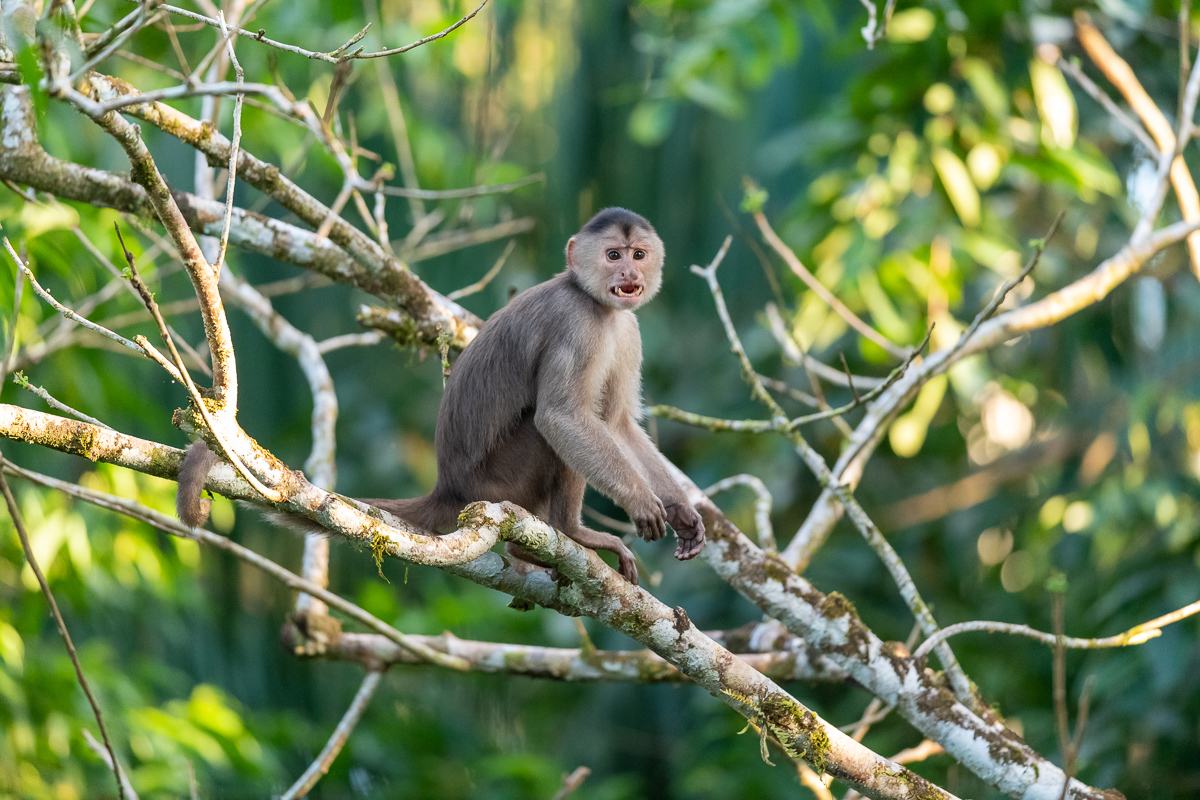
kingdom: Animalia
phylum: Chordata
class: Mammalia
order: Primates
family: Cebidae
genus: Cebus
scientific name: Cebus yuracus
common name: Peruvian white-fronted capuchin
